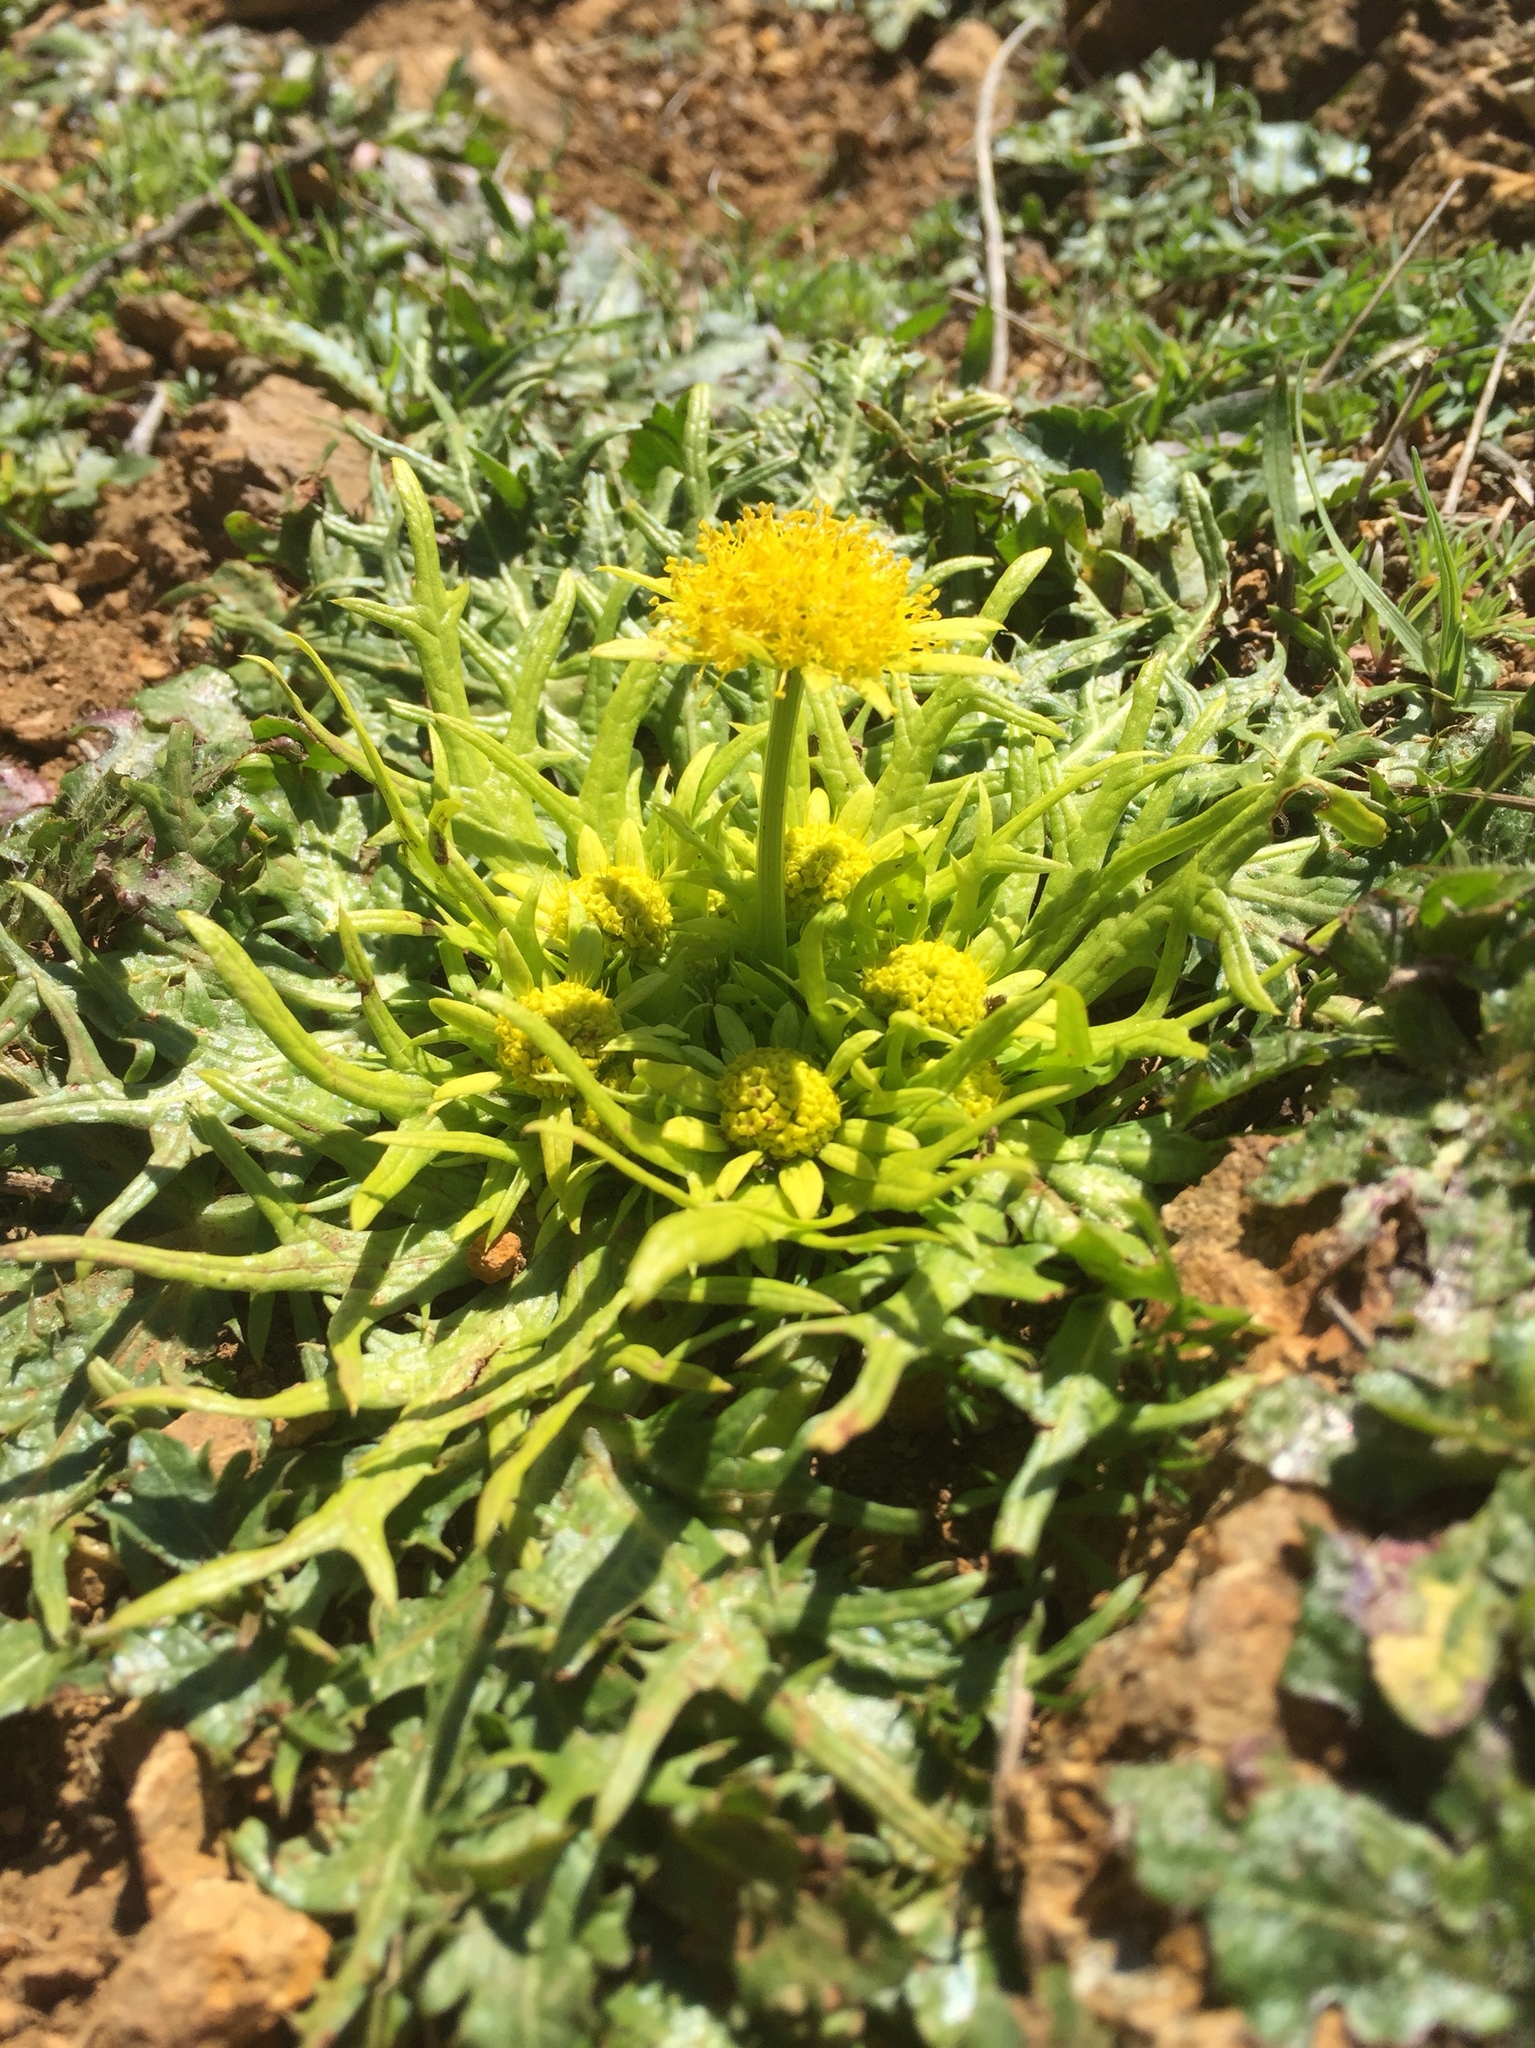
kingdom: Plantae
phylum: Tracheophyta
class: Magnoliopsida
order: Apiales
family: Apiaceae
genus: Sanicula
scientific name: Sanicula arctopoides
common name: Footsteps-of-spring
